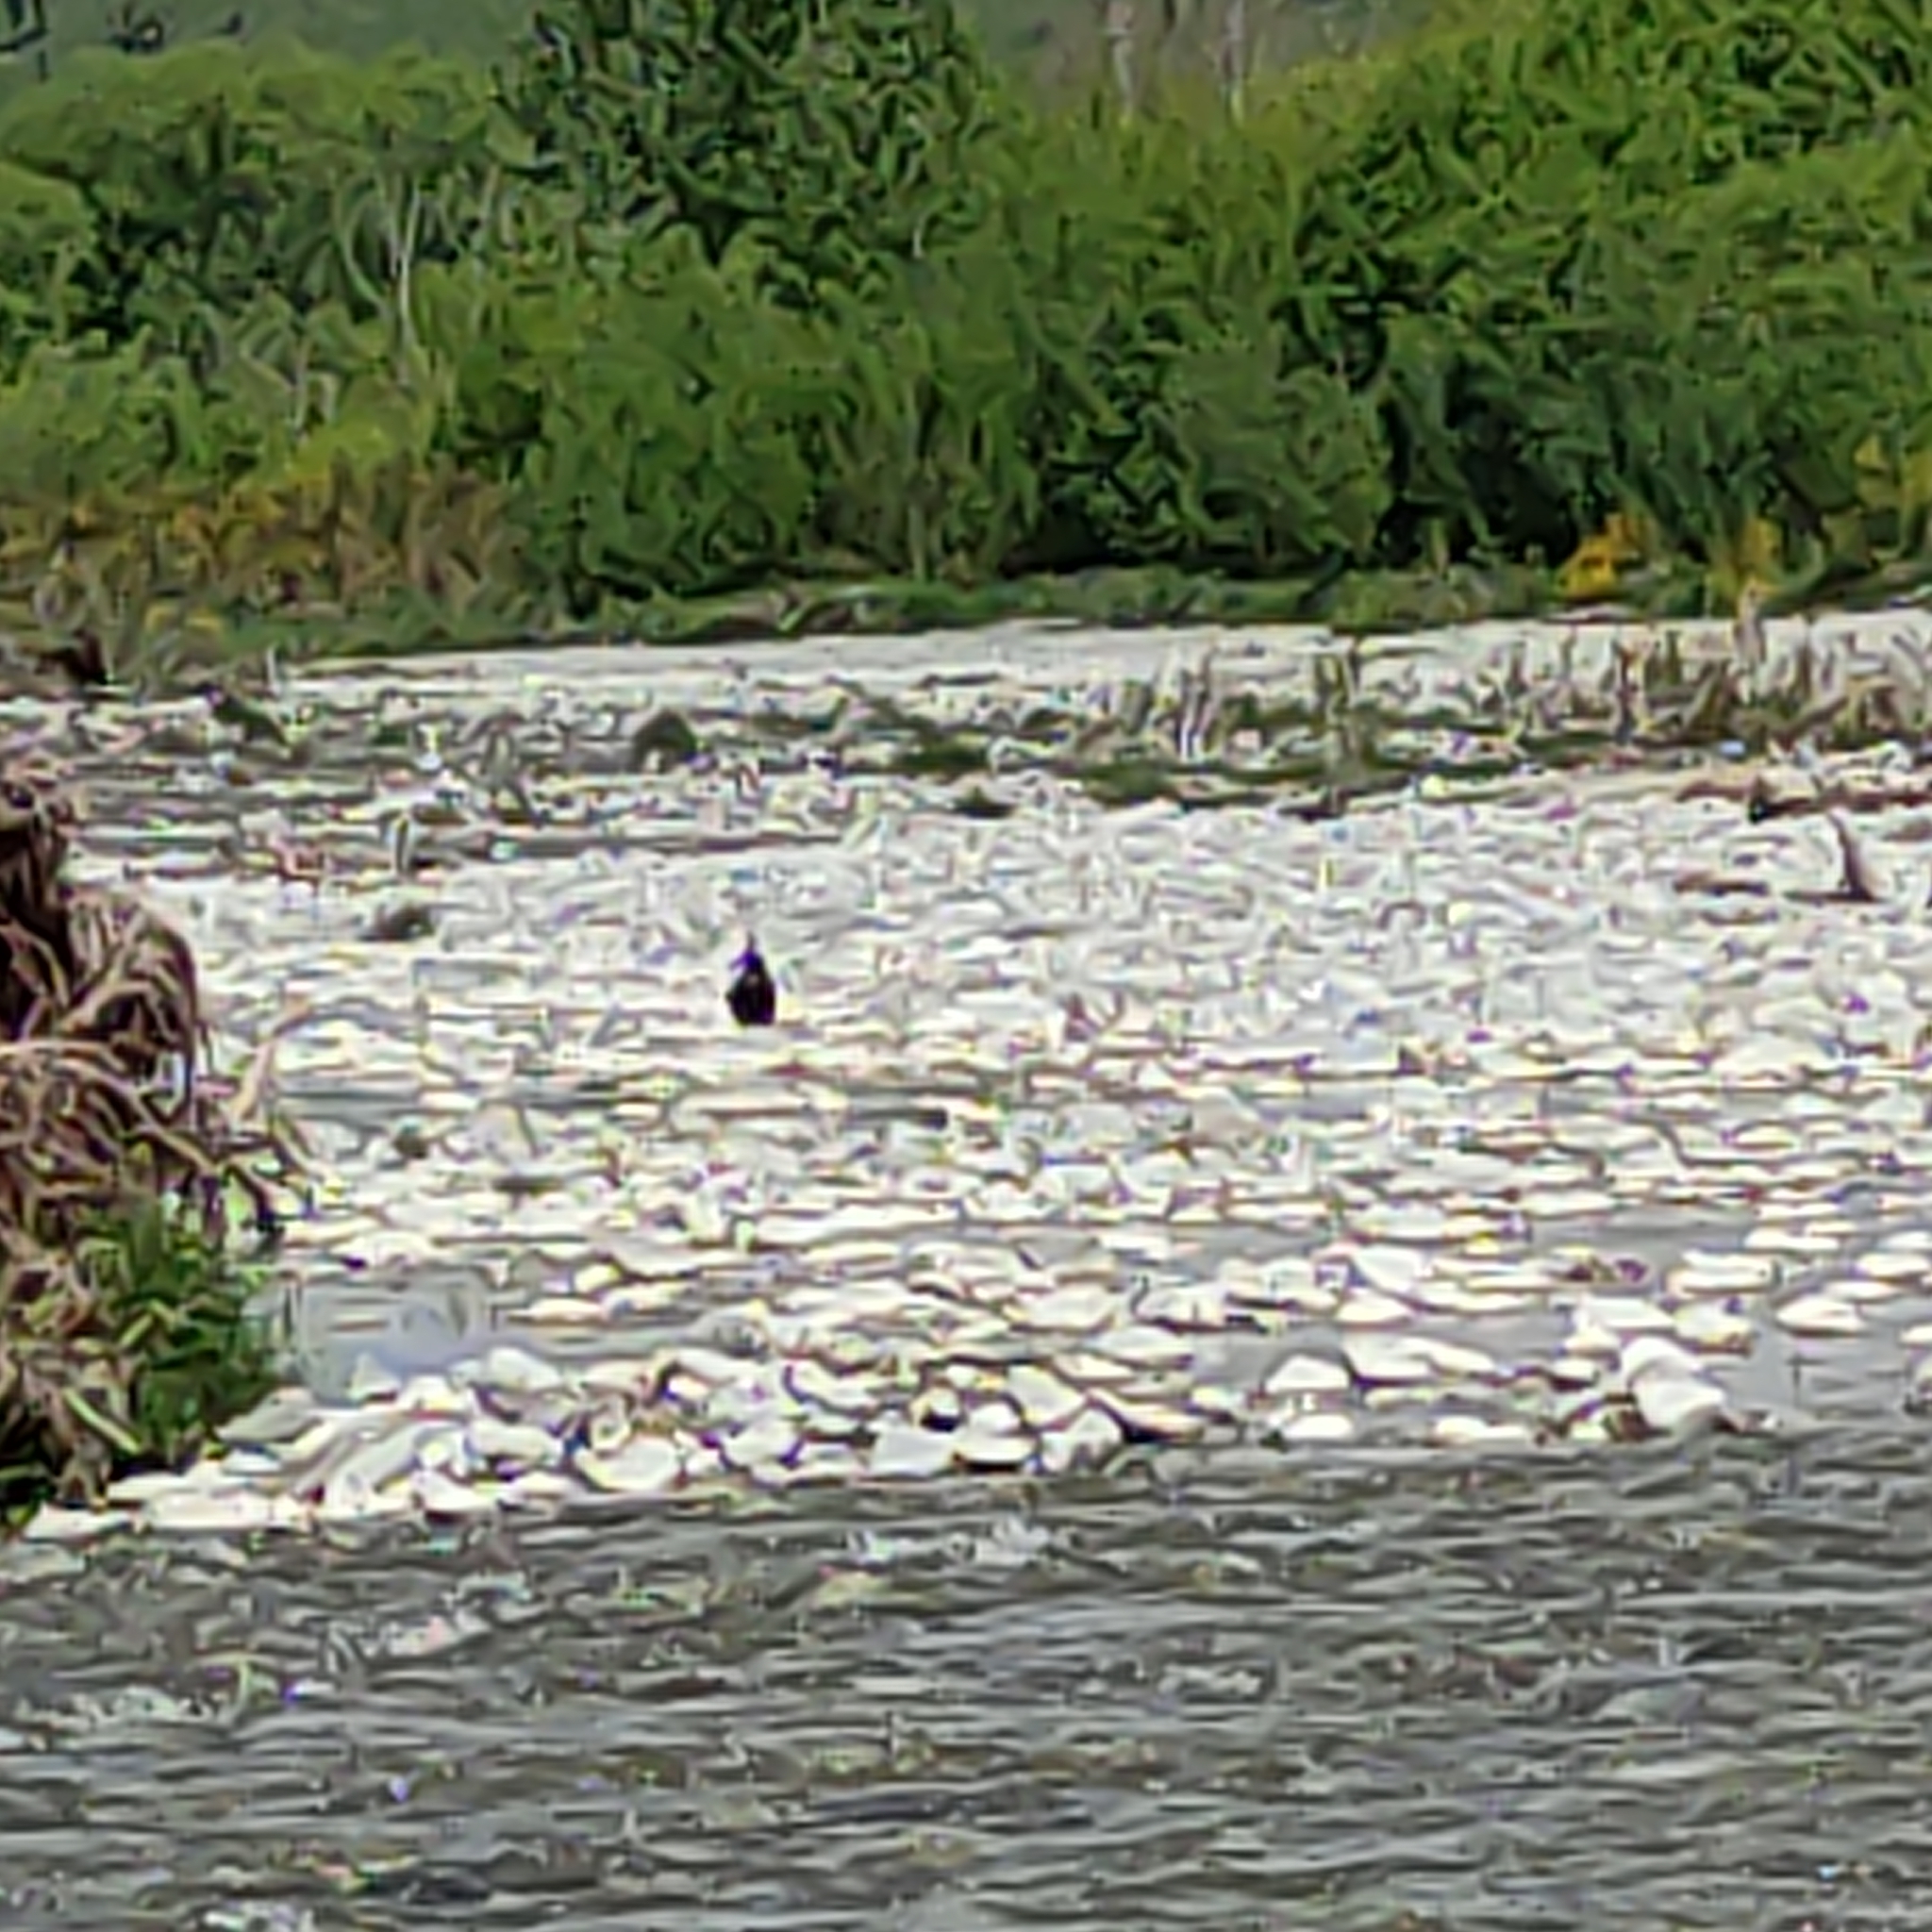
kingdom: Animalia
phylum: Chordata
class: Aves
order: Anseriformes
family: Anatidae
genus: Tadorna
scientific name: Tadorna variegata
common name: Paradise shelduck
